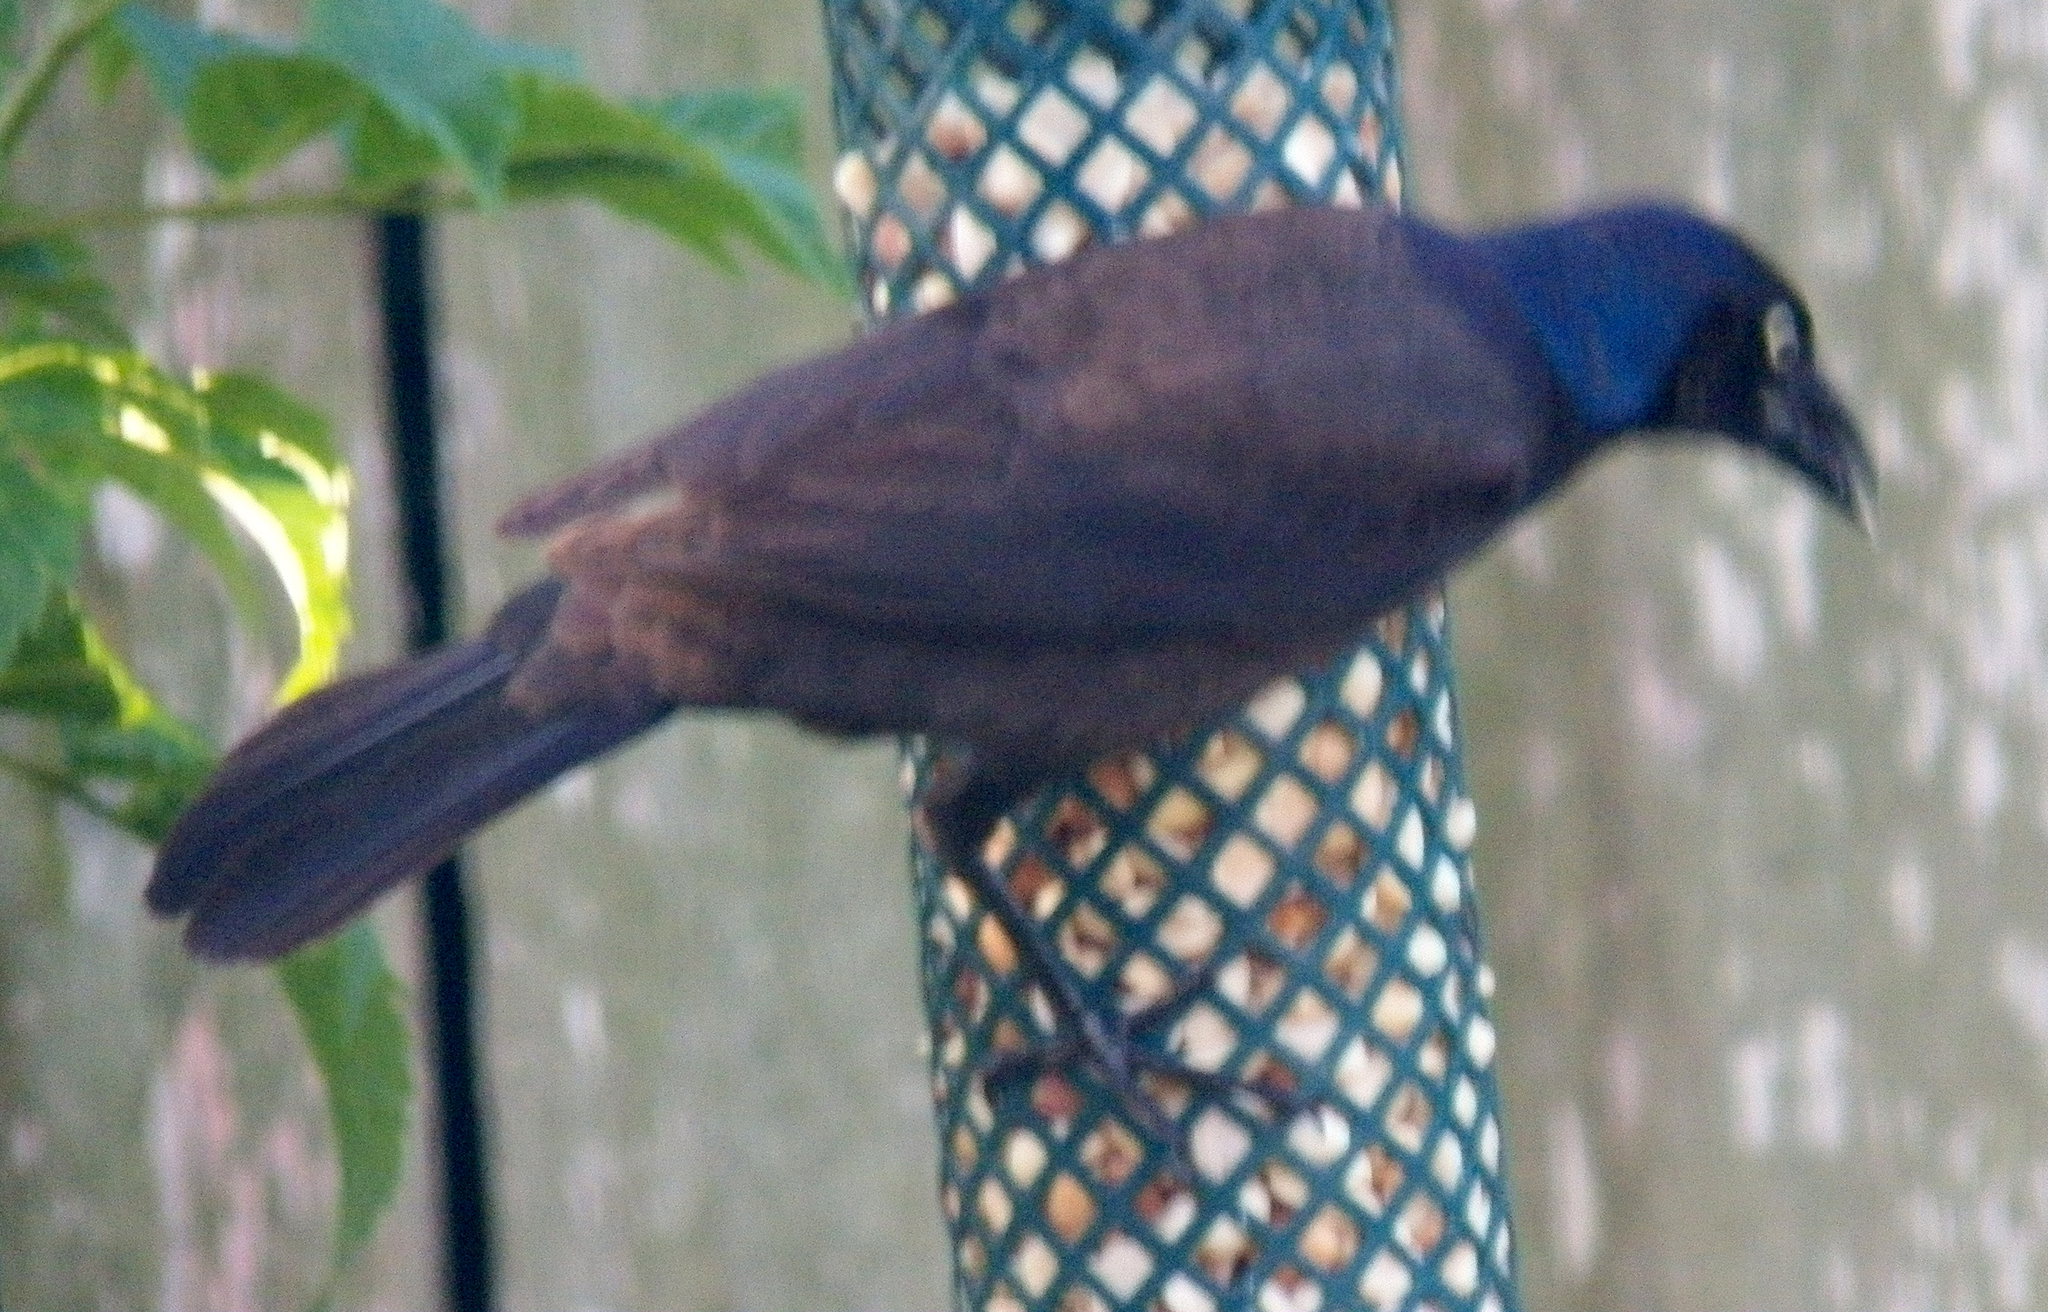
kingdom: Animalia
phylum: Chordata
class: Aves
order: Passeriformes
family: Icteridae
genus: Quiscalus
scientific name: Quiscalus quiscula
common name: Common grackle
